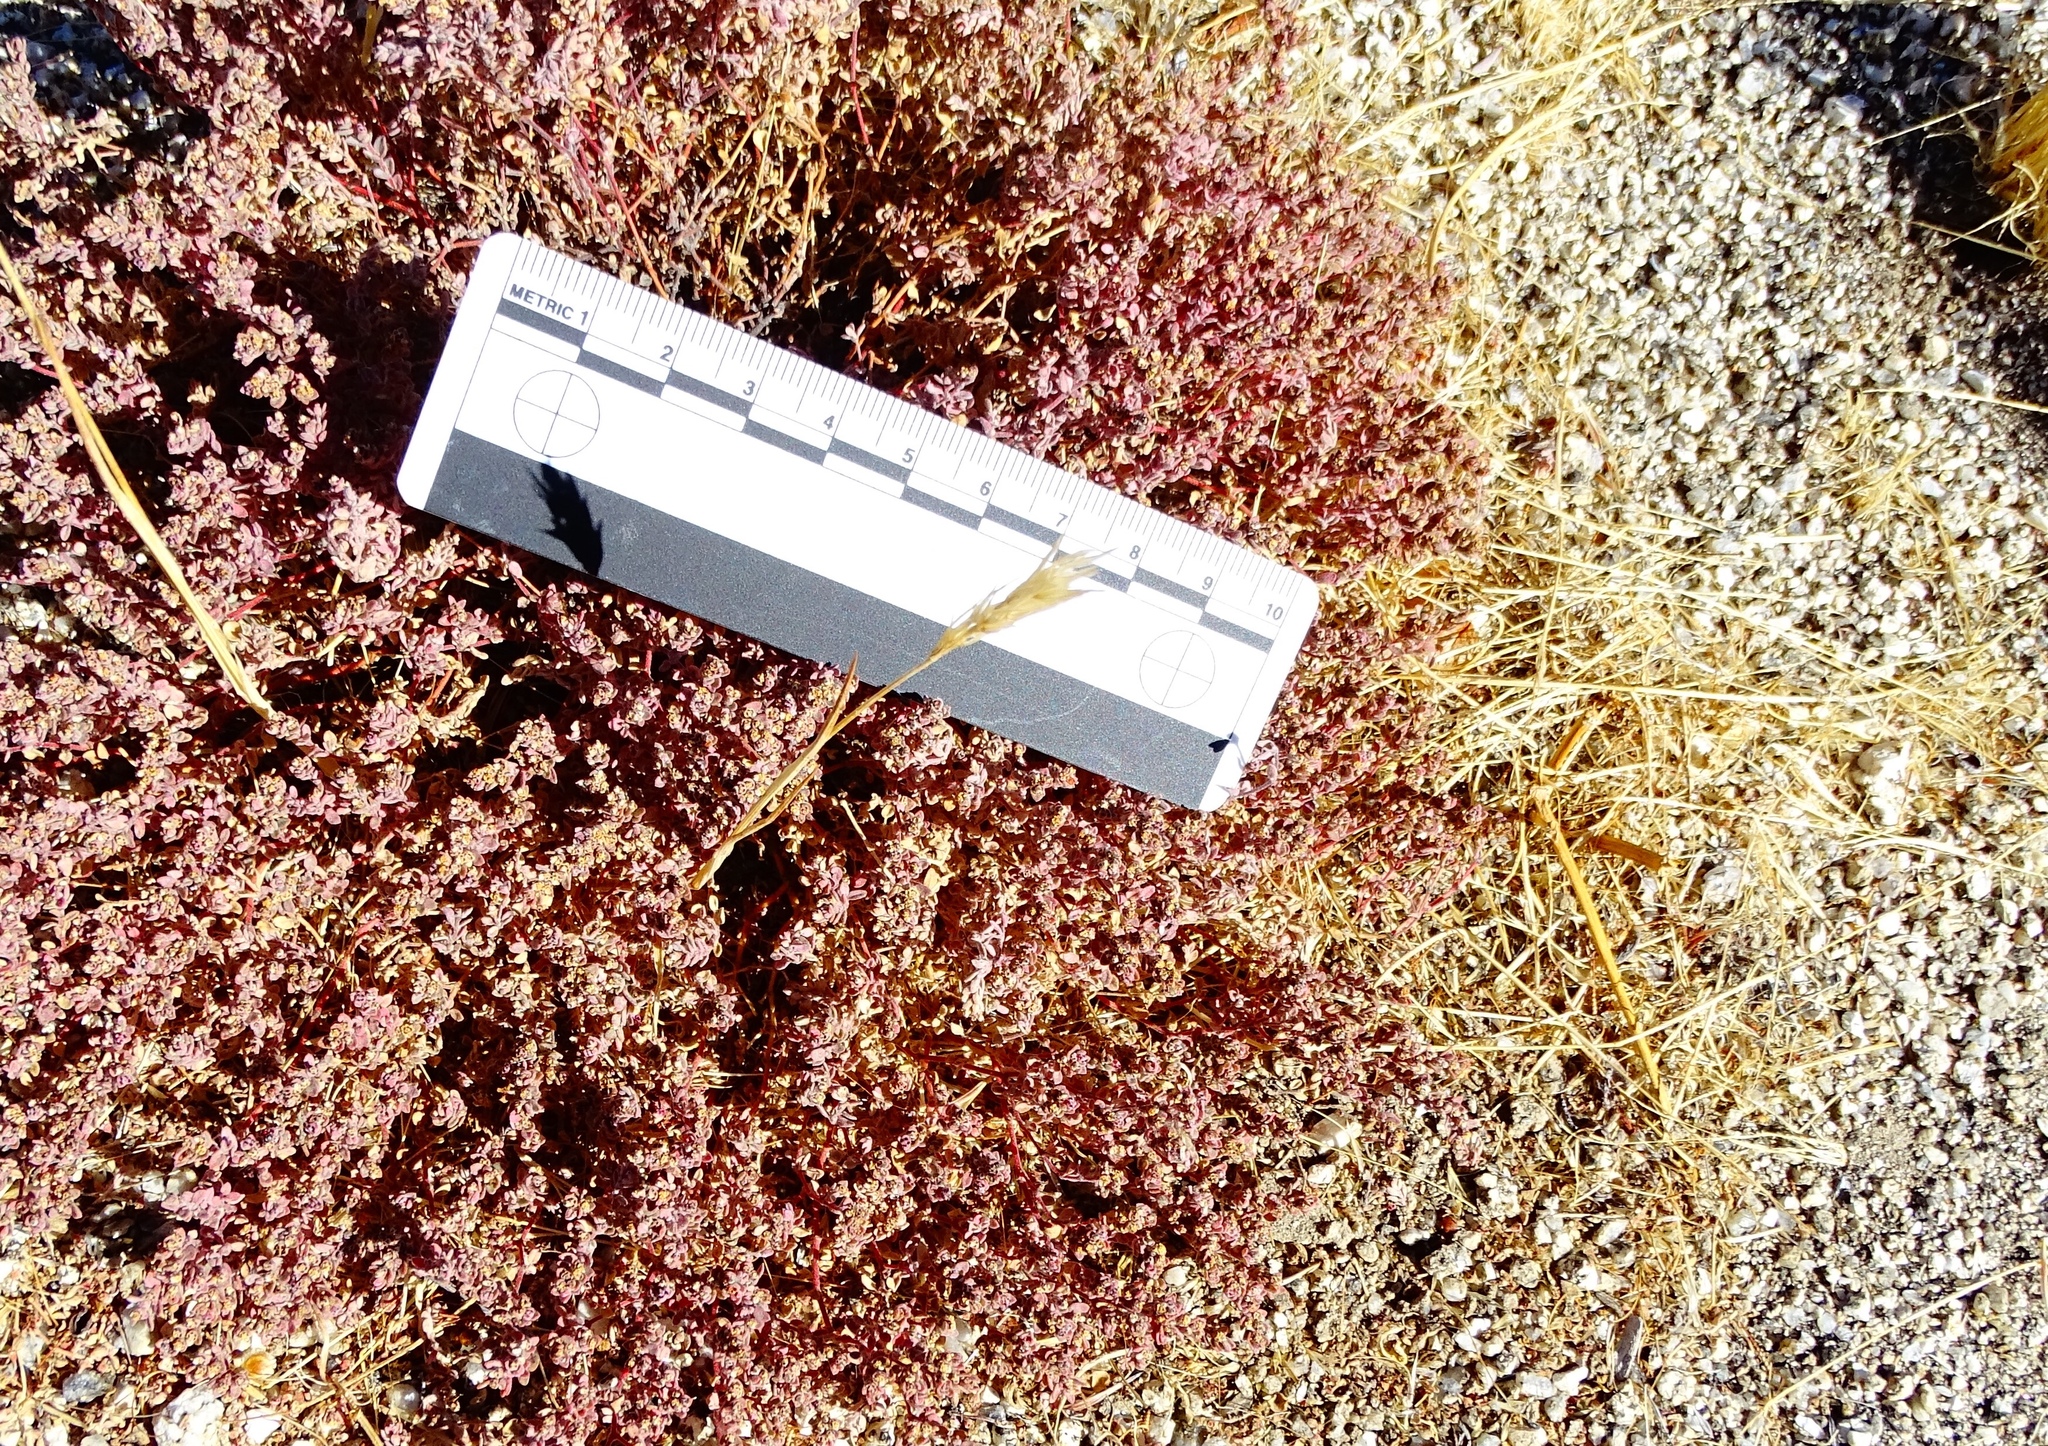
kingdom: Plantae
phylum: Tracheophyta
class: Magnoliopsida
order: Malpighiales
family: Euphorbiaceae
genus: Euphorbia
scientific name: Euphorbia melanadenia
